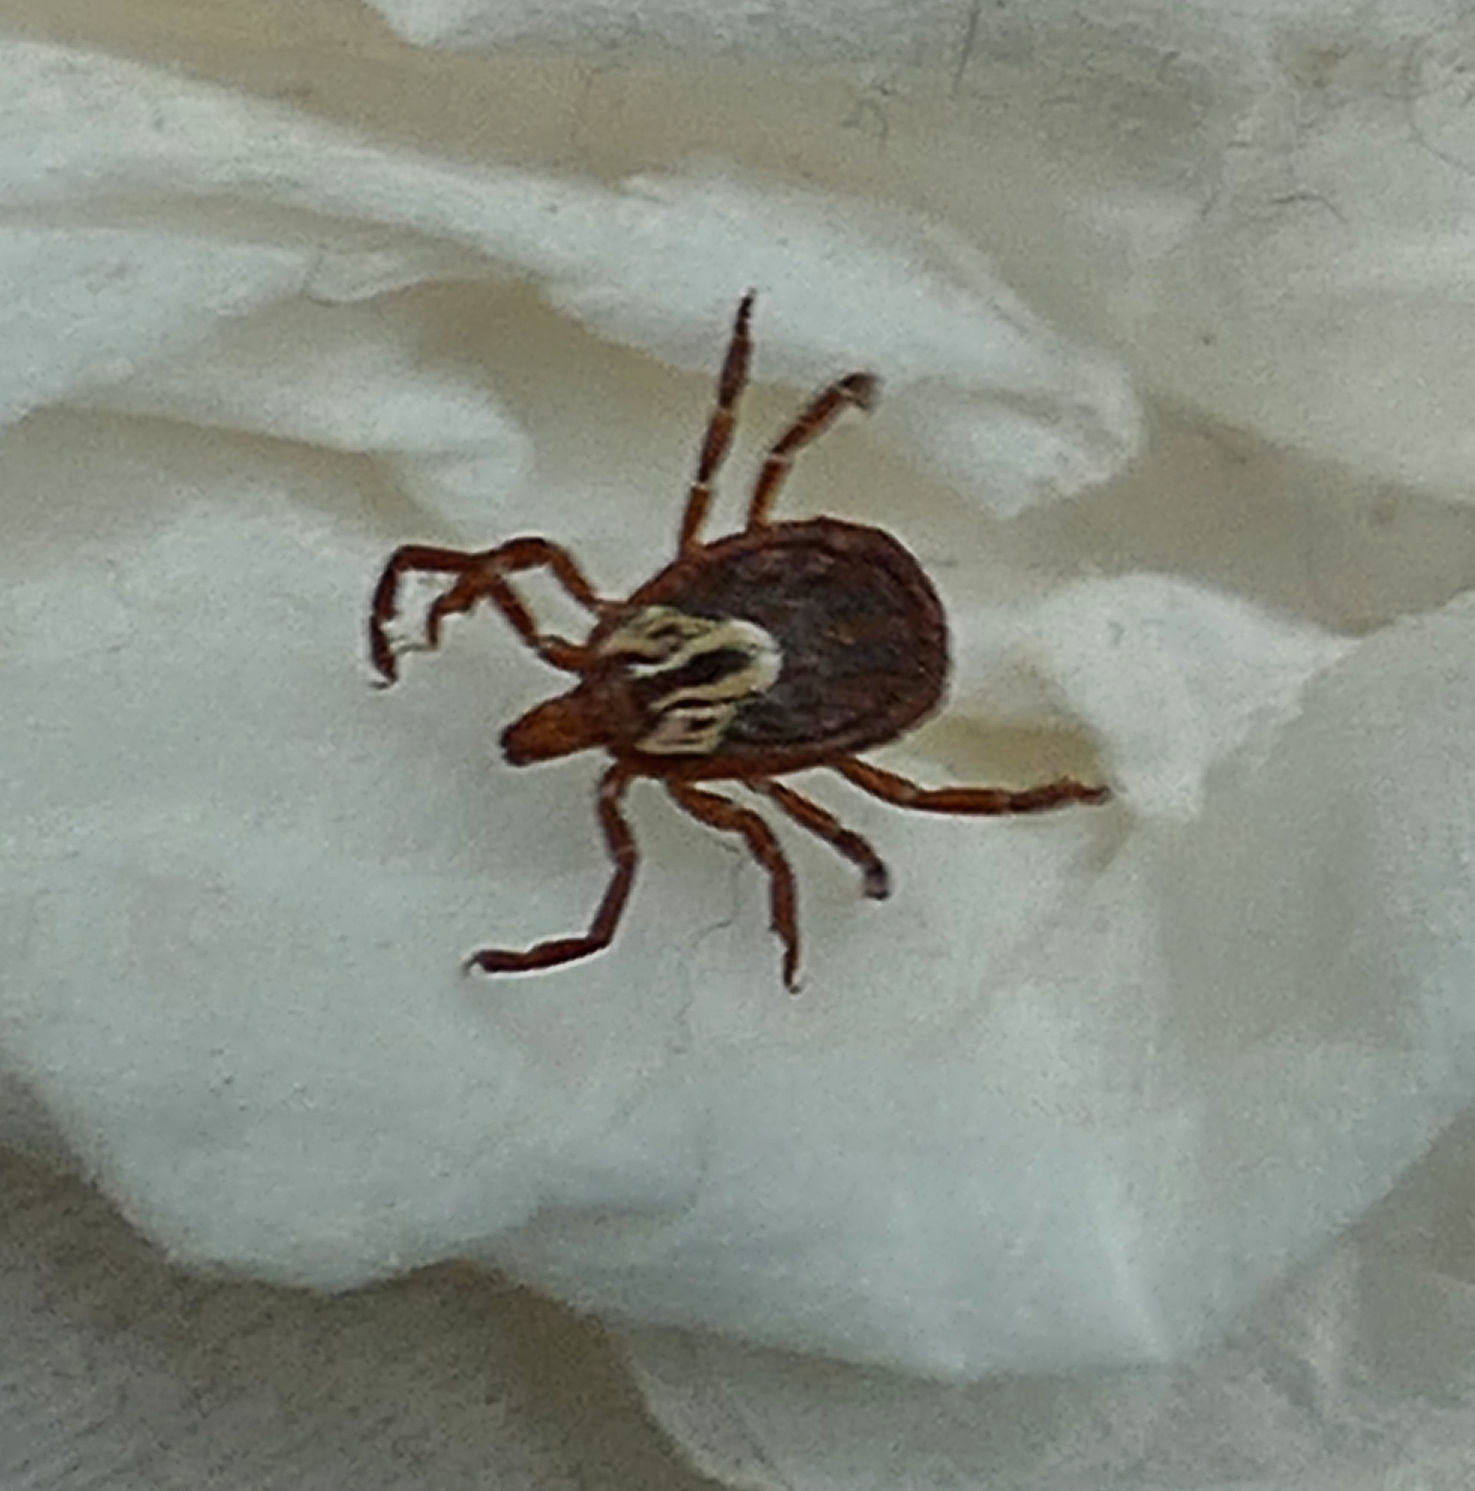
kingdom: Animalia
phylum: Arthropoda
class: Arachnida
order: Ixodida
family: Ixodidae
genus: Amblyomma
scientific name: Amblyomma maculatum
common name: Gulf coast tick
